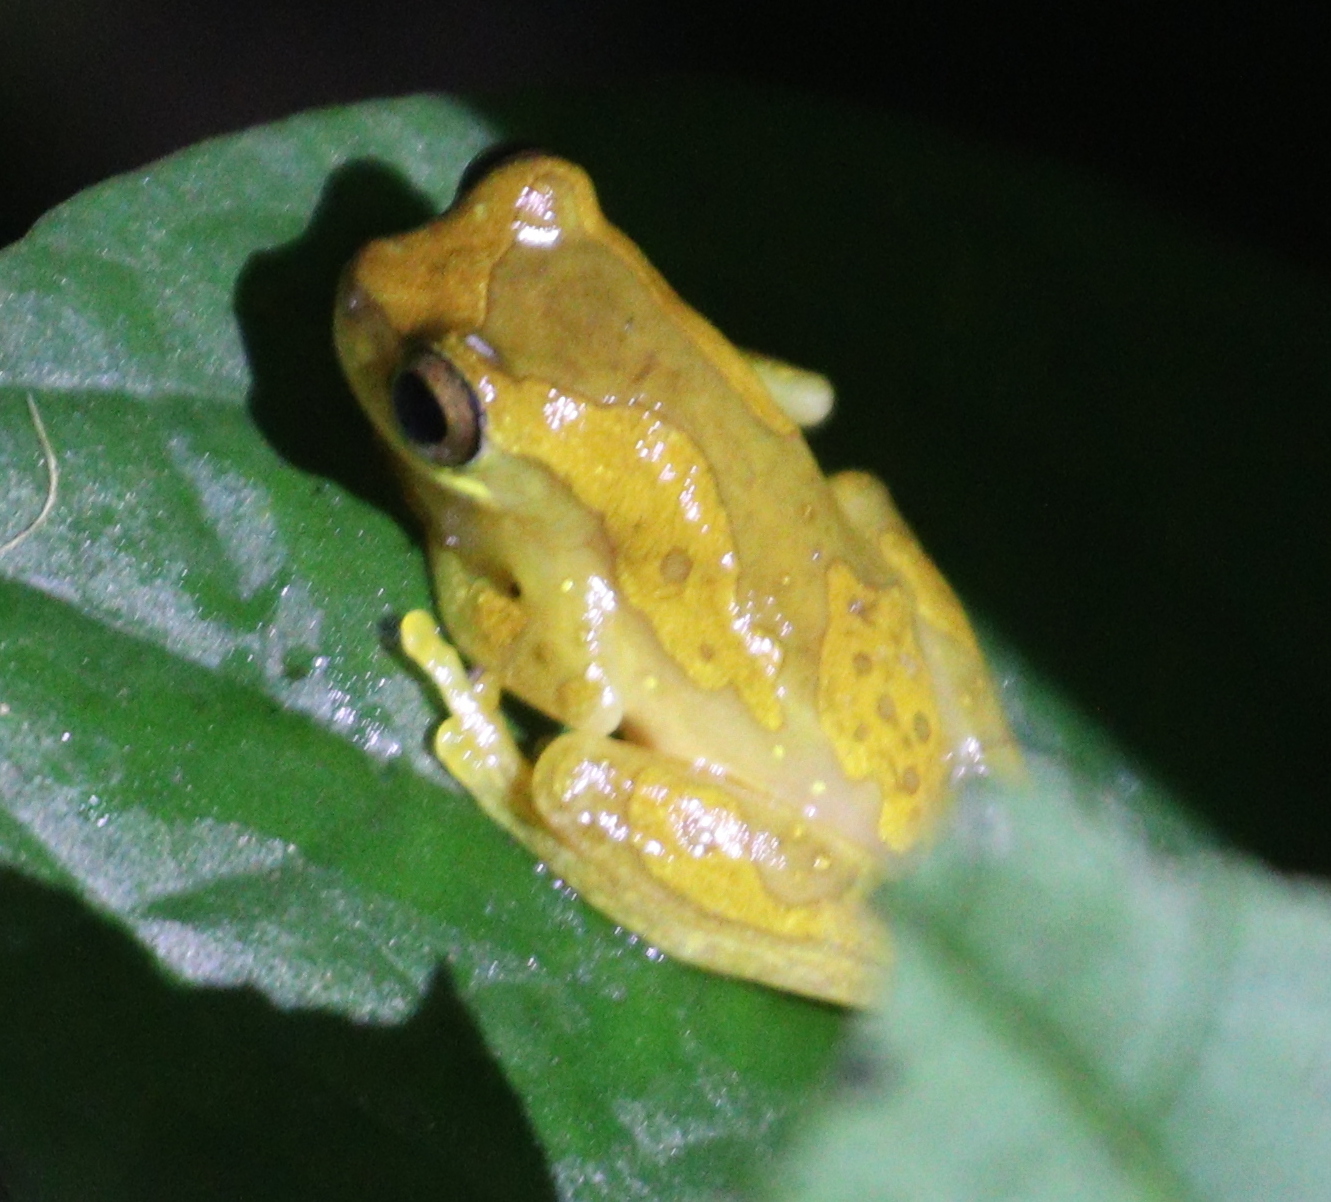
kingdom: Animalia
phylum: Chordata
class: Amphibia
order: Anura
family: Hylidae
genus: Dendropsophus
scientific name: Dendropsophus ebraccatus
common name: Hourglass treefrog
